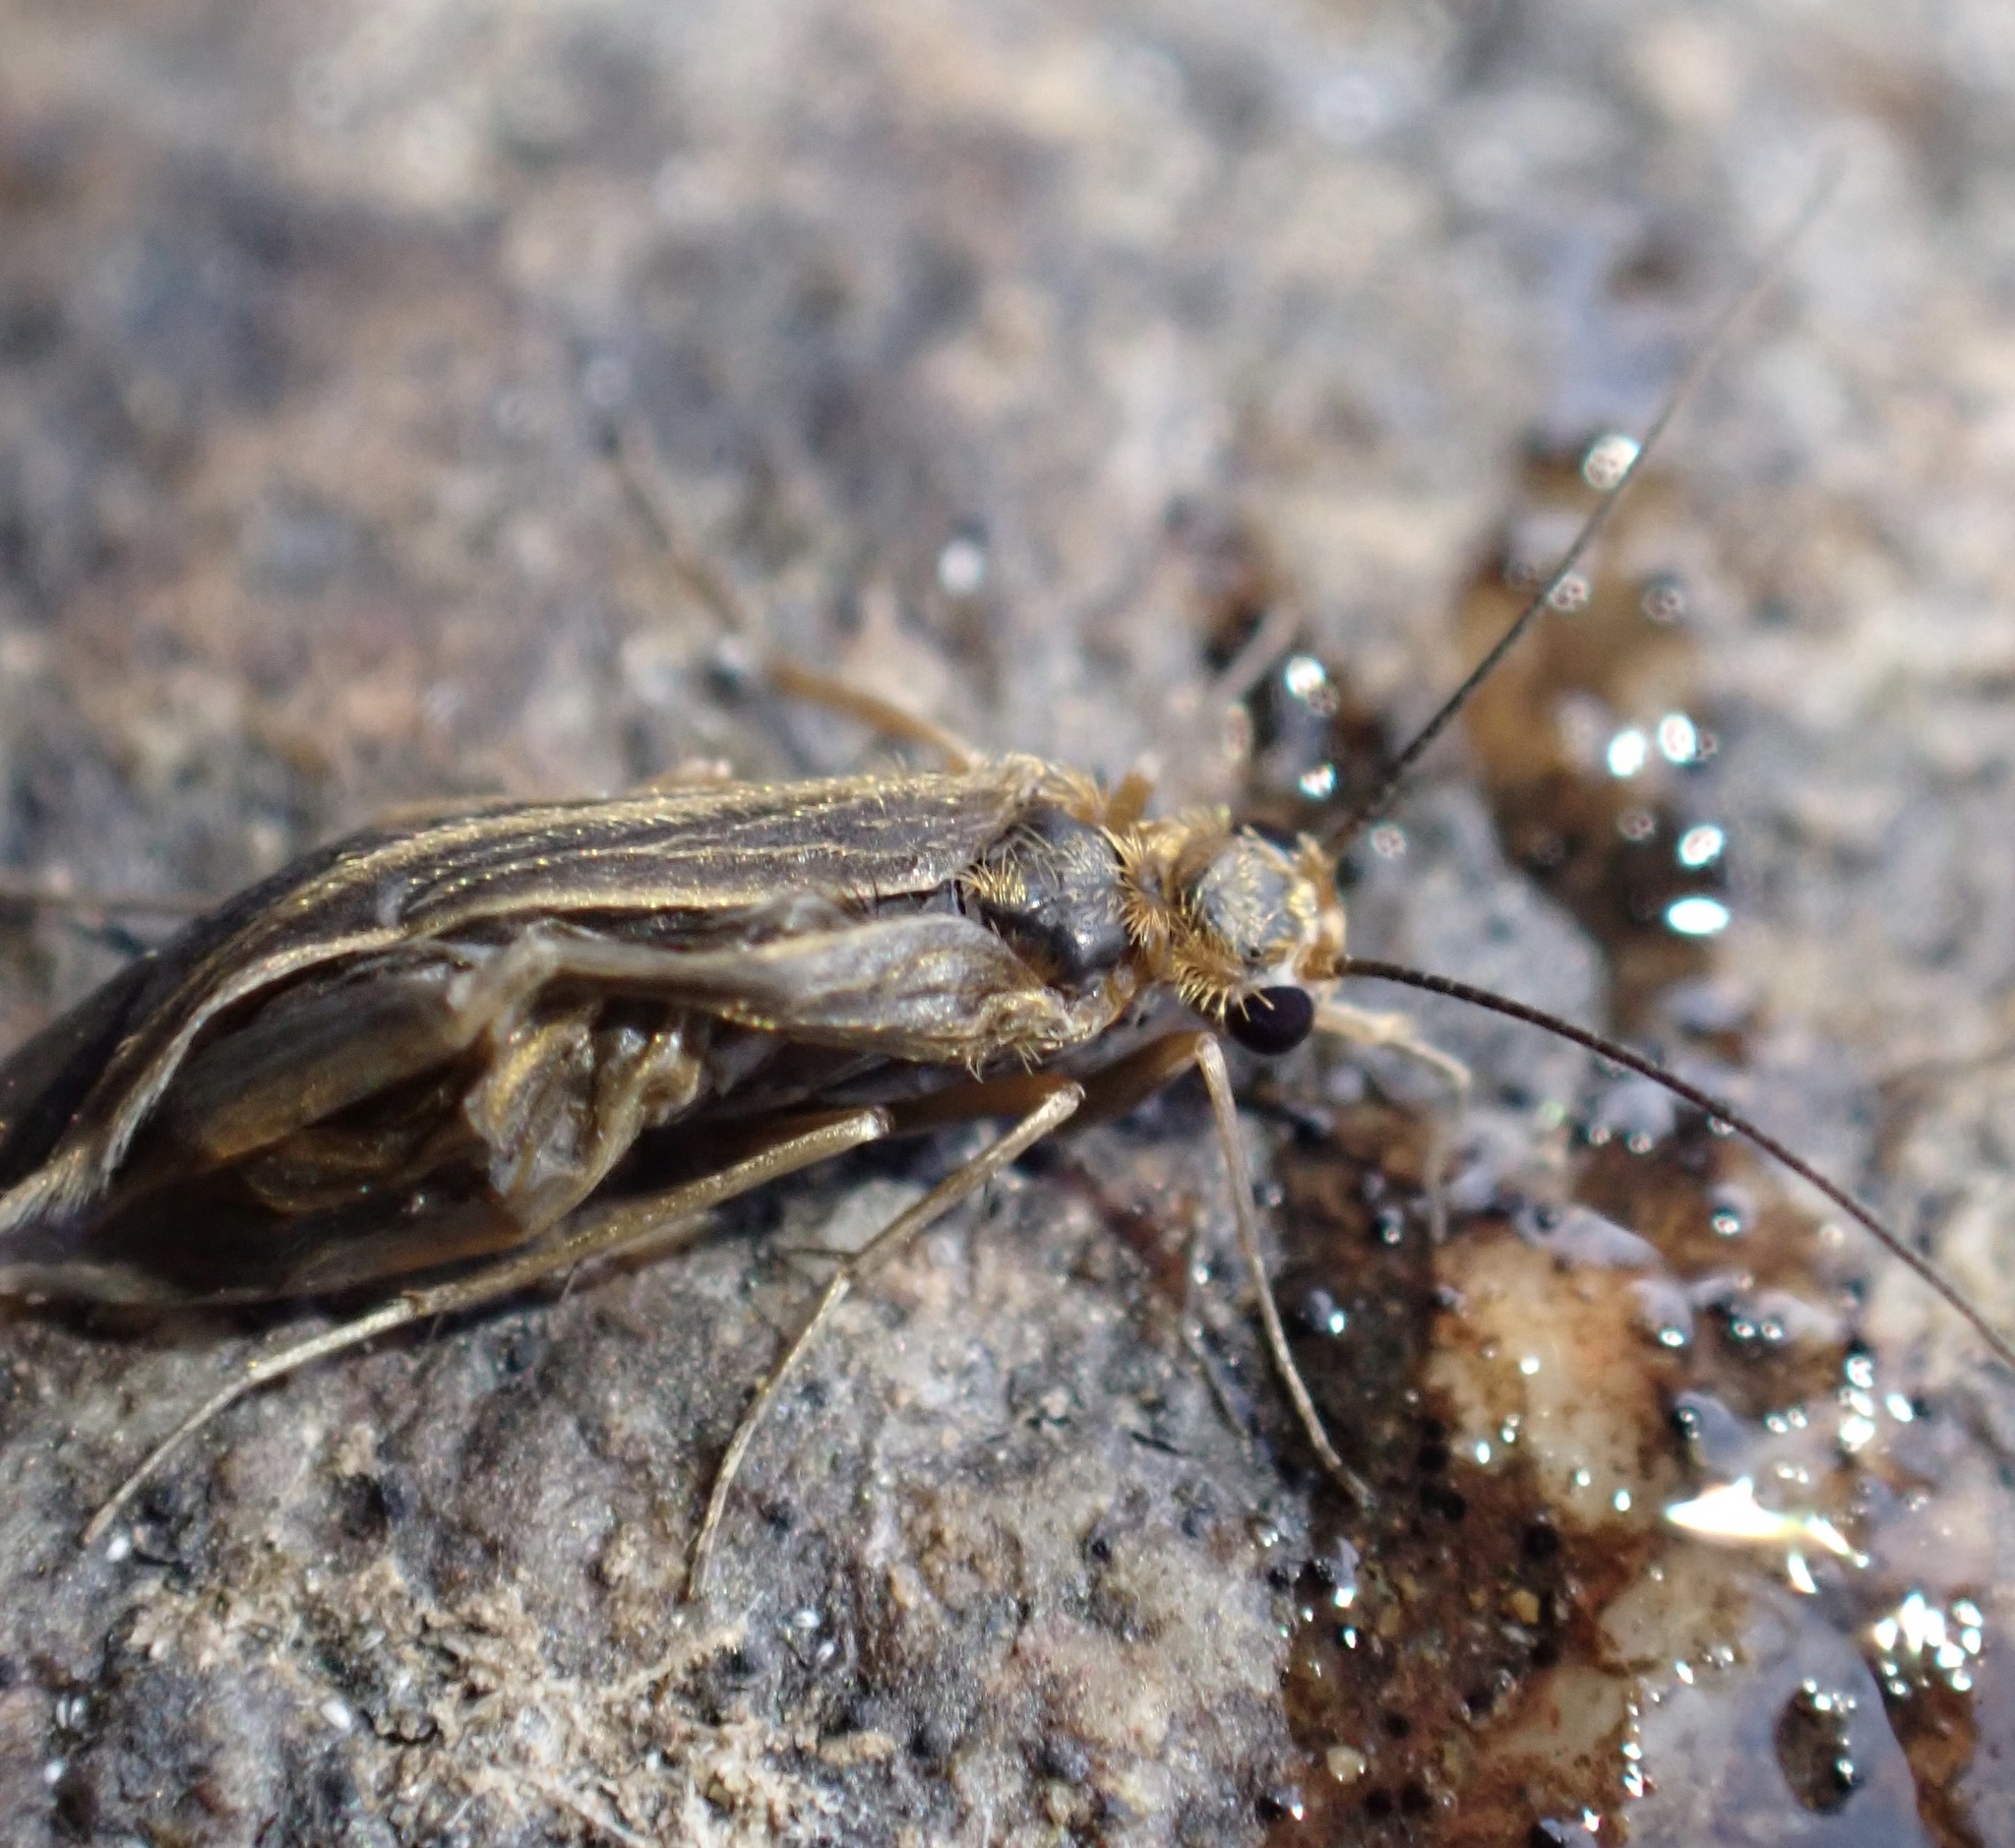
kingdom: Animalia
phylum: Arthropoda
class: Insecta
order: Trichoptera
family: Philopotamidae
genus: Chimarra
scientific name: Chimarra marginata
